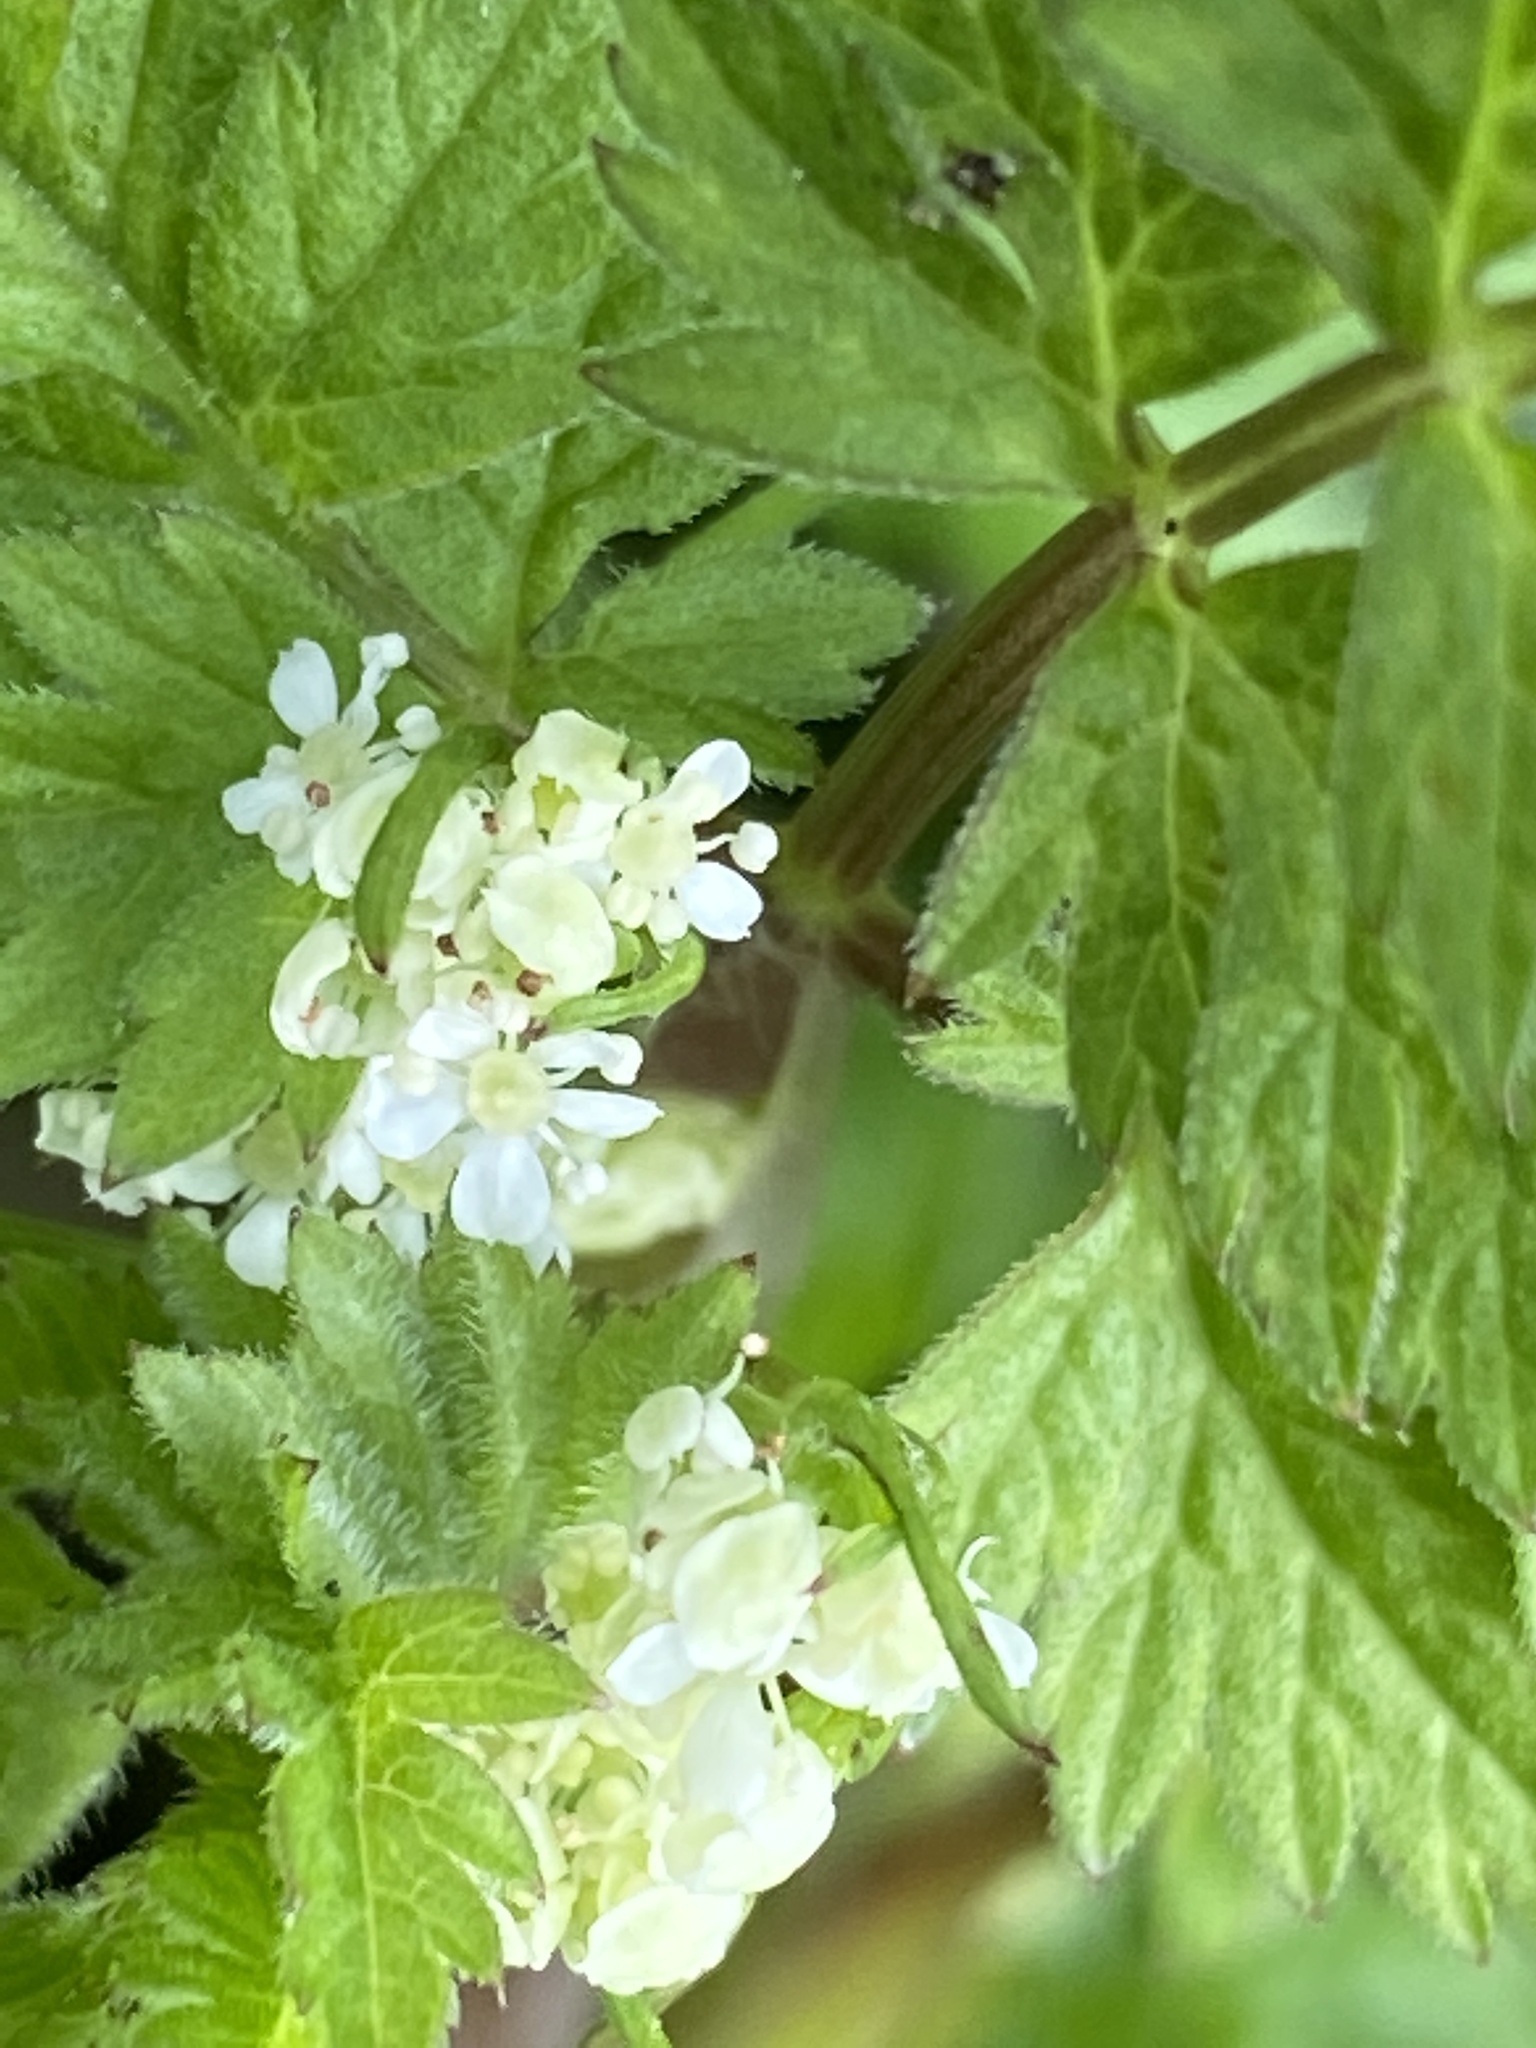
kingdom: Plantae
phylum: Tracheophyta
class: Magnoliopsida
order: Apiales
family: Apiaceae
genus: Anthriscus
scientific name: Anthriscus sylvestris
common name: Cow parsley
